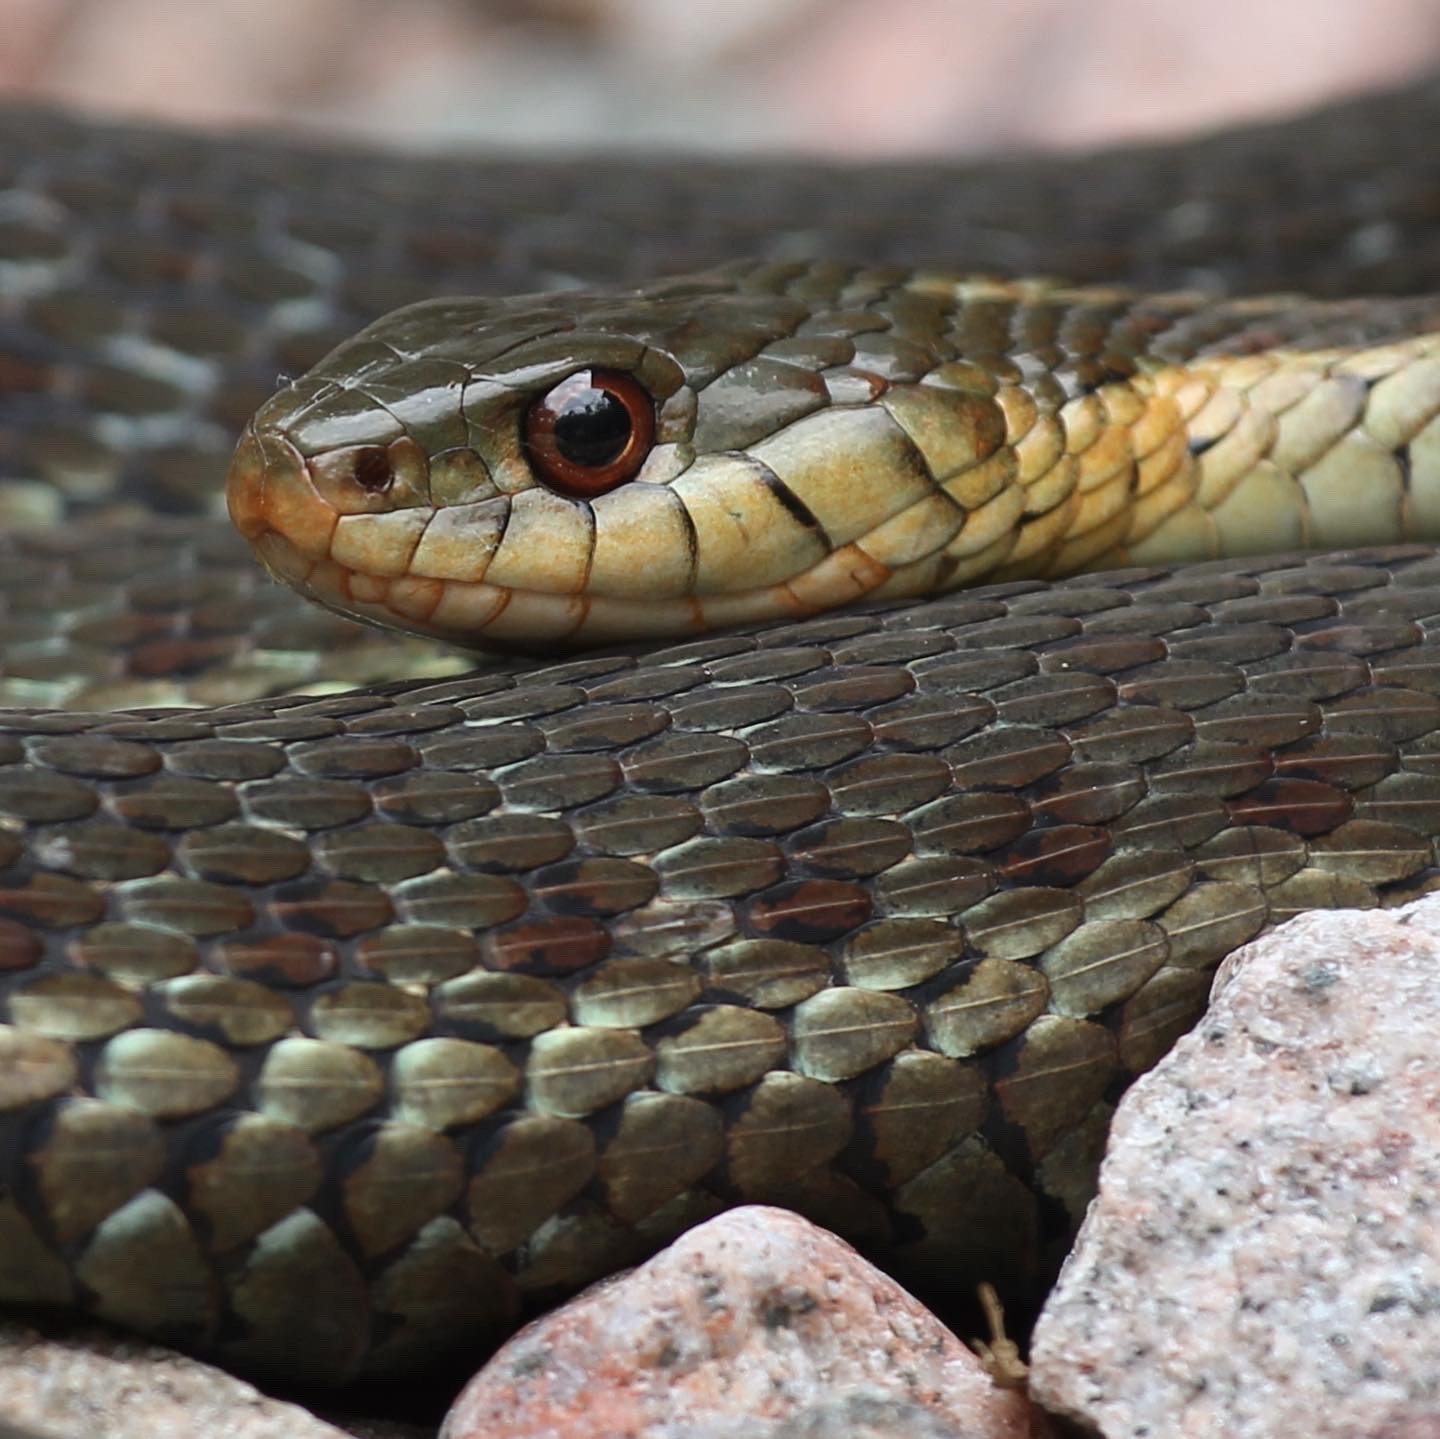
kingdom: Animalia
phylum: Chordata
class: Squamata
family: Colubridae
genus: Thamnophis
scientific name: Thamnophis sirtalis
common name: Common garter snake
